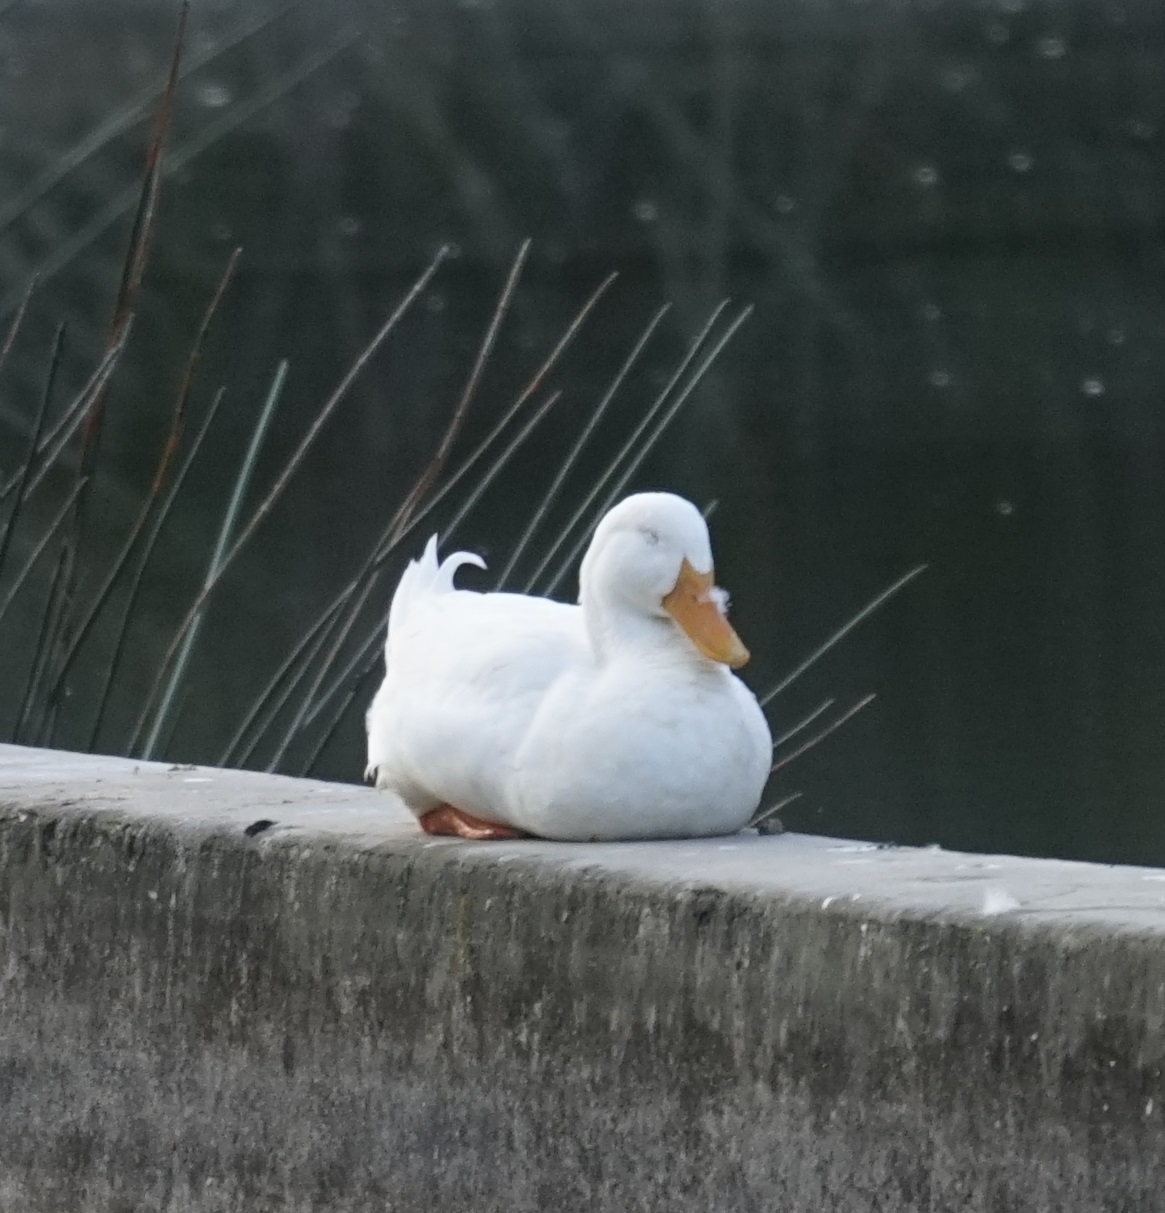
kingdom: Animalia
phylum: Chordata
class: Aves
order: Anseriformes
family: Anatidae
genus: Anas
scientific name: Anas platyrhynchos
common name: Mallard
